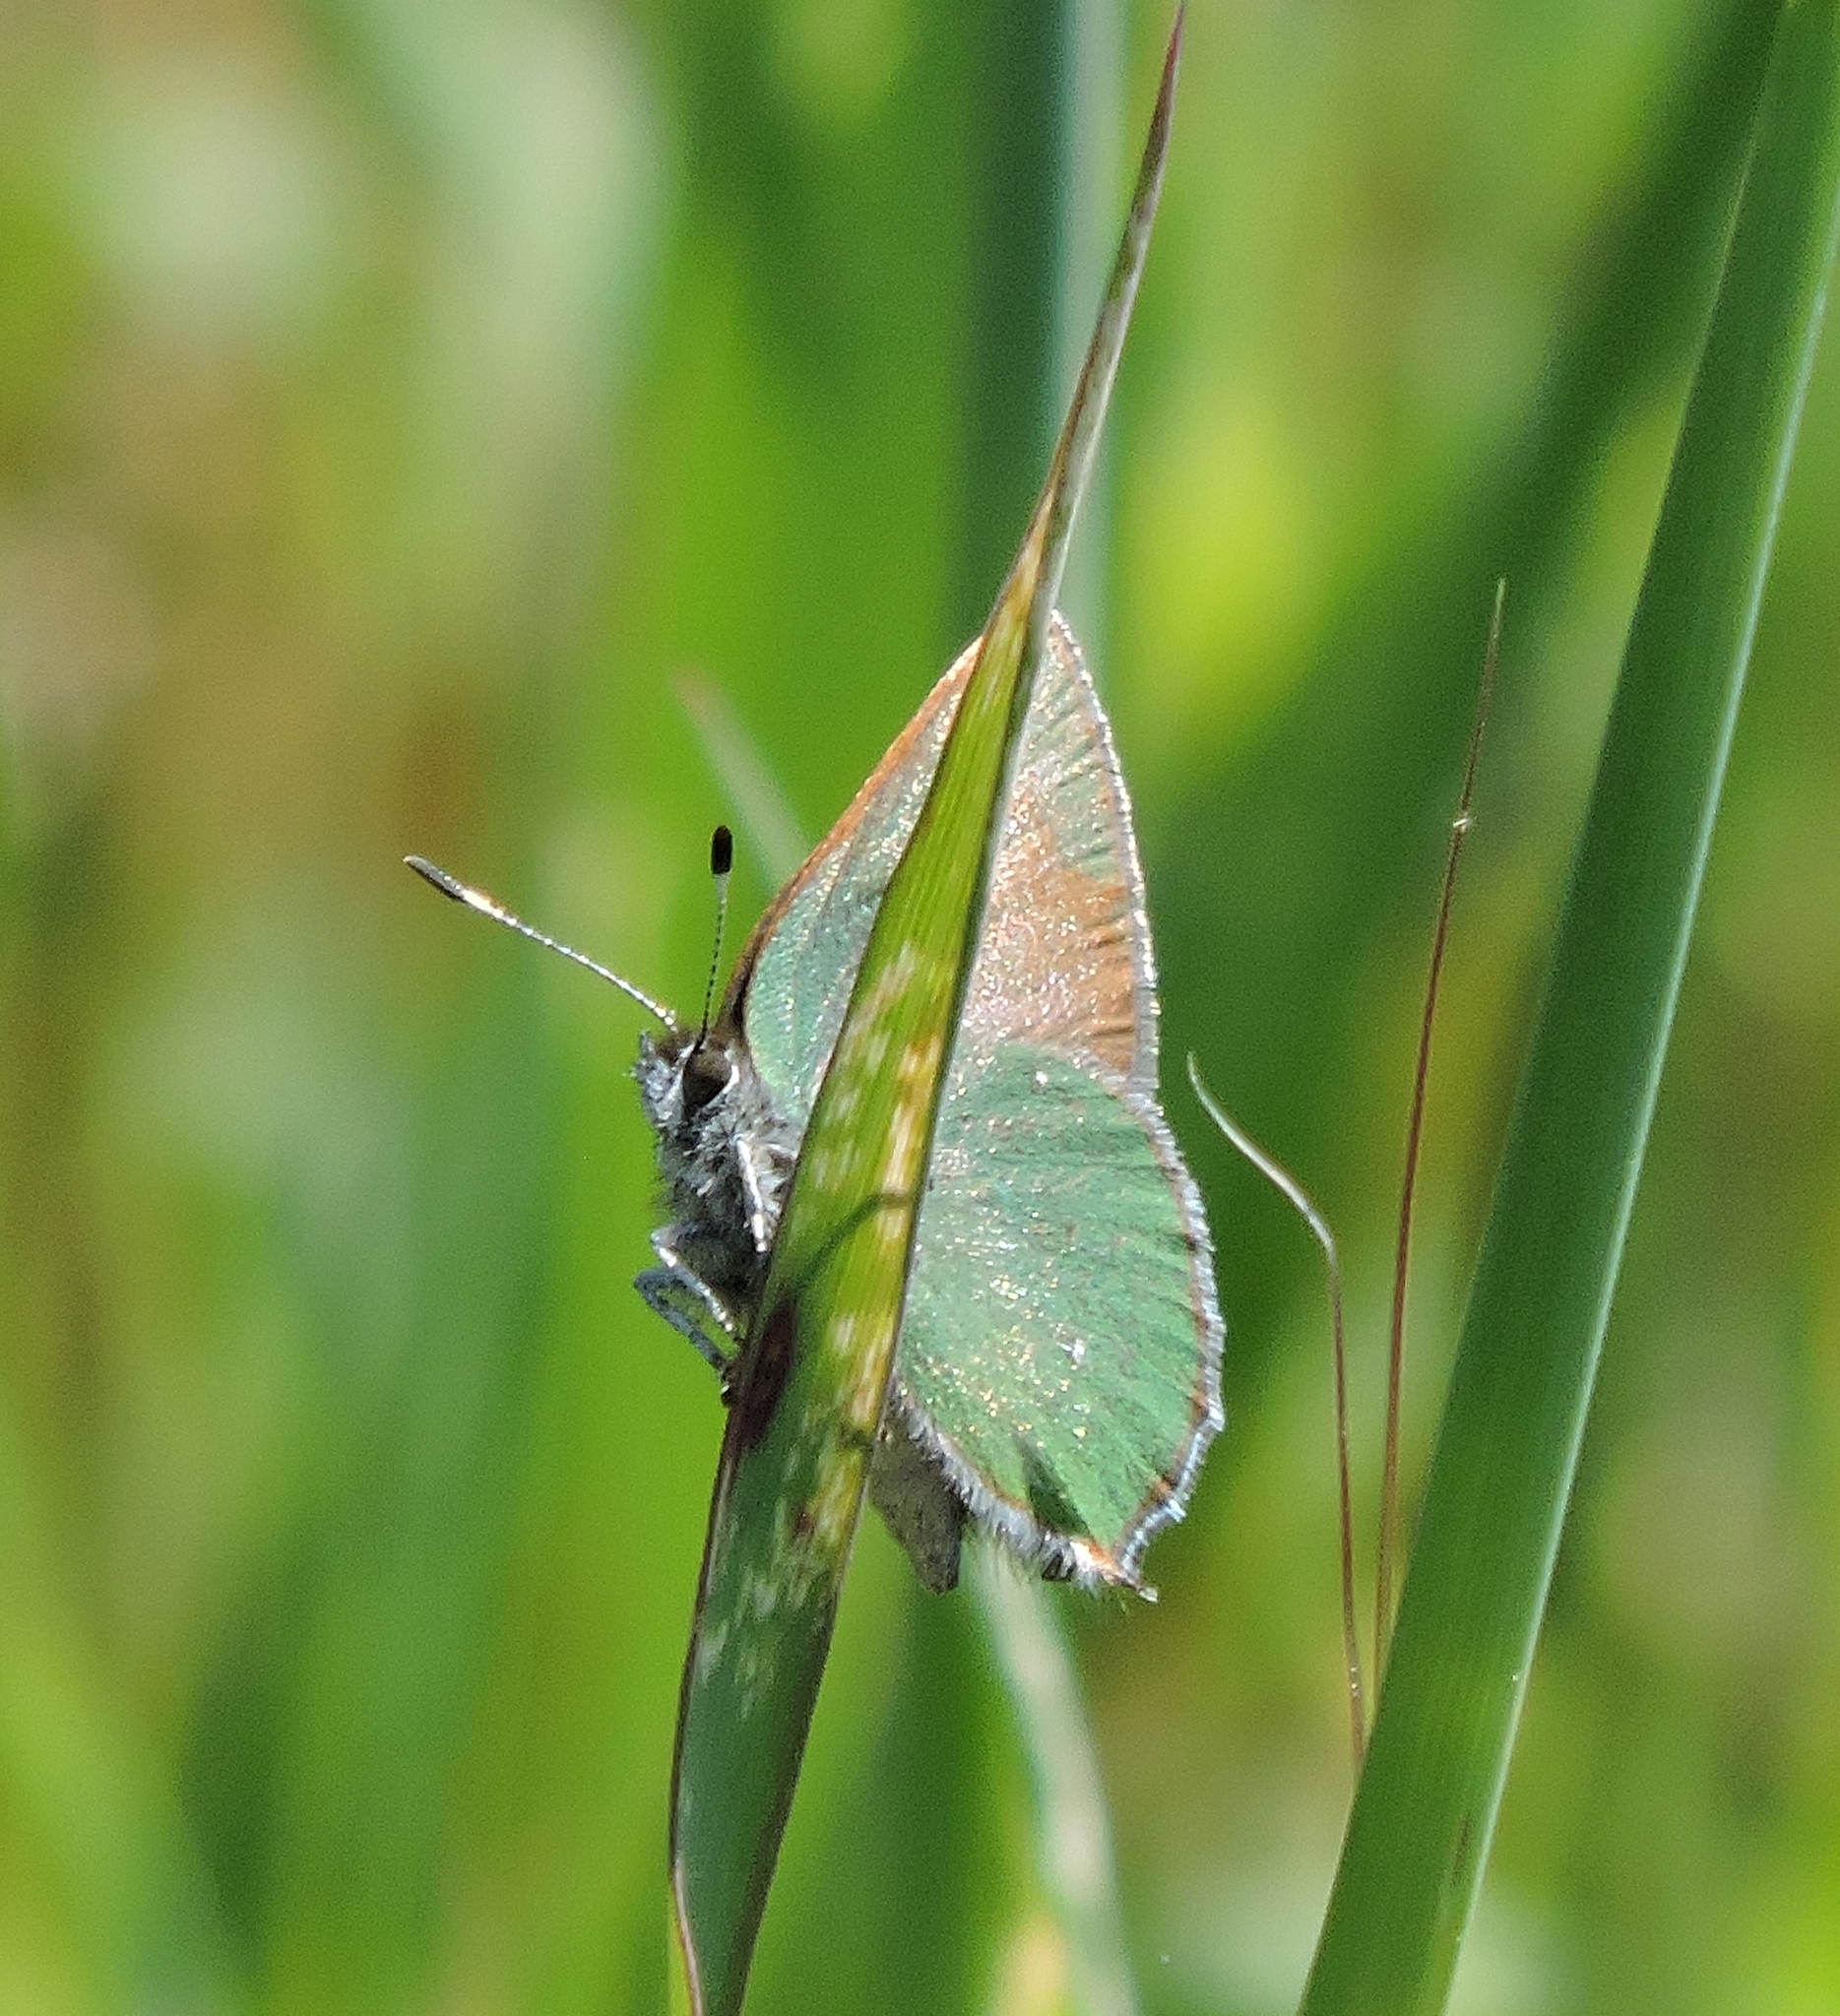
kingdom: Animalia
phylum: Arthropoda
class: Insecta
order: Lepidoptera
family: Lycaenidae
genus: Callophrys
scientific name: Callophrys dumetorum
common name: Bramble hairstreak
